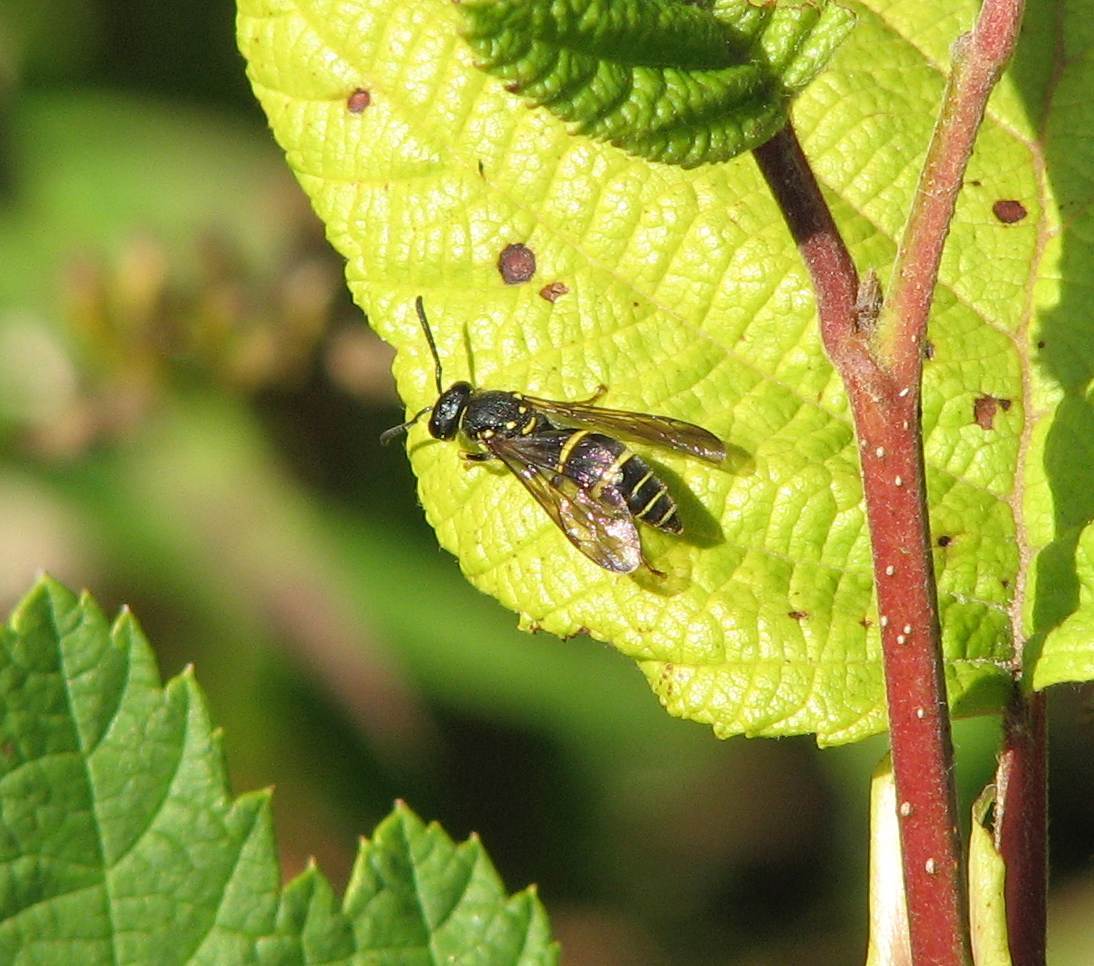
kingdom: Animalia
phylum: Arthropoda
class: Insecta
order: Hymenoptera
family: Vespidae
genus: Ancistrocerus
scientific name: Ancistrocerus adiabatus
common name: Bramble mason wasp
